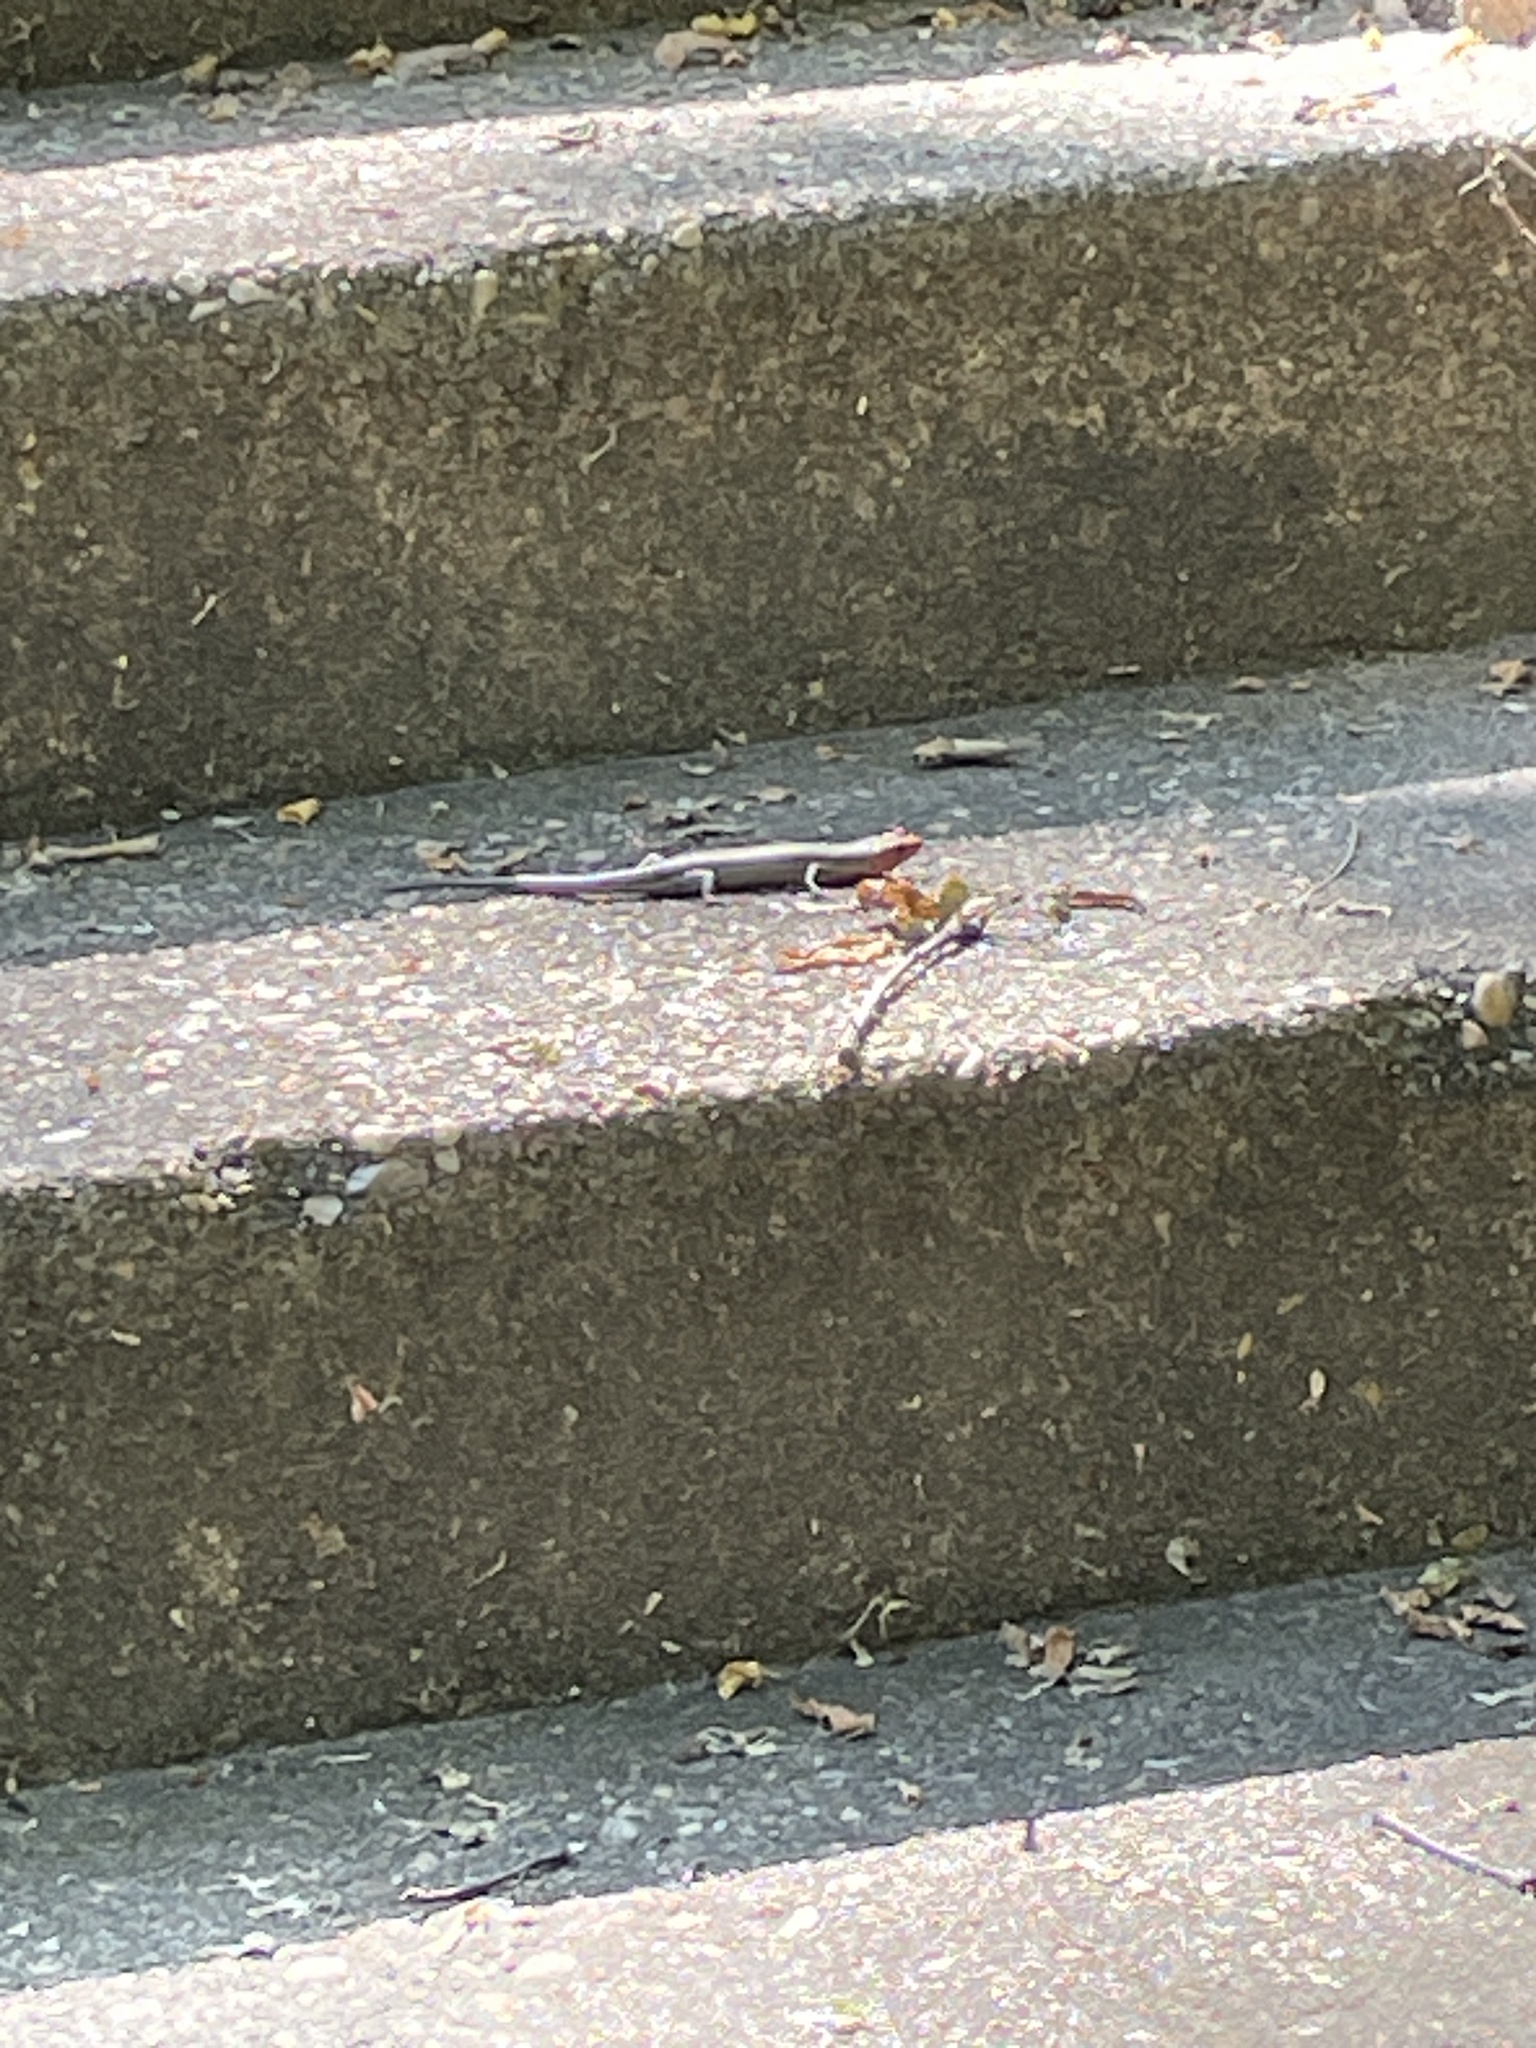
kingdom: Animalia
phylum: Chordata
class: Squamata
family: Scincidae
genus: Plestiodon
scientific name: Plestiodon fasciatus
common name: Five-lined skink
